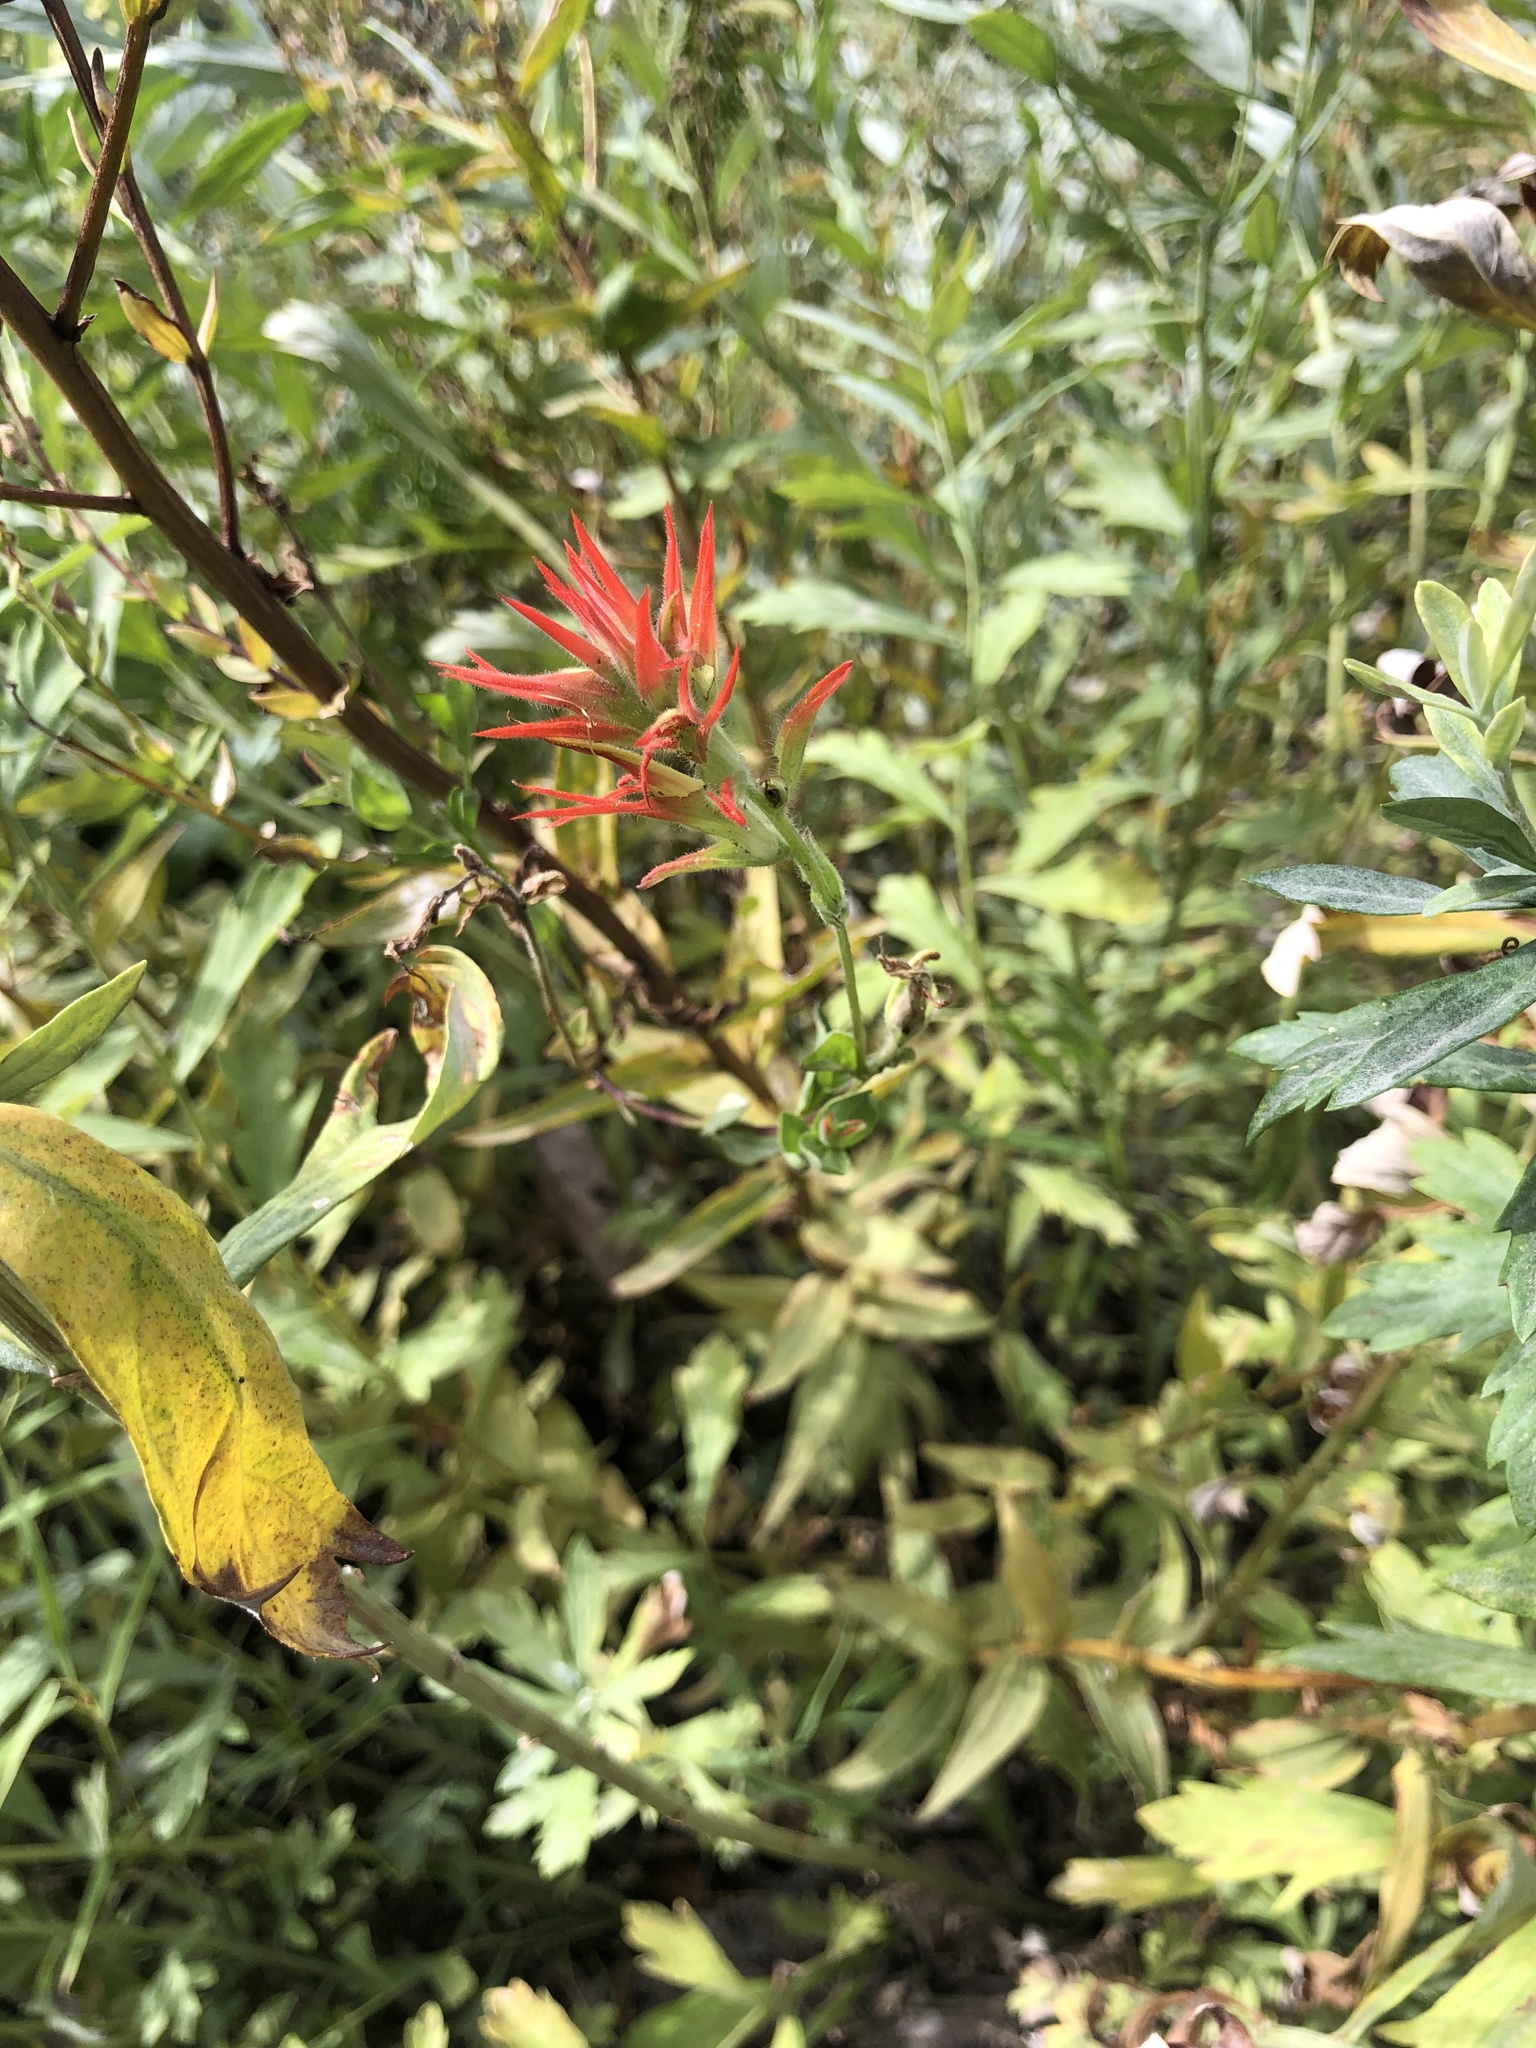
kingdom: Plantae
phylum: Tracheophyta
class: Magnoliopsida
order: Lamiales
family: Orobanchaceae
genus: Castilleja
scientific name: Castilleja miniata
